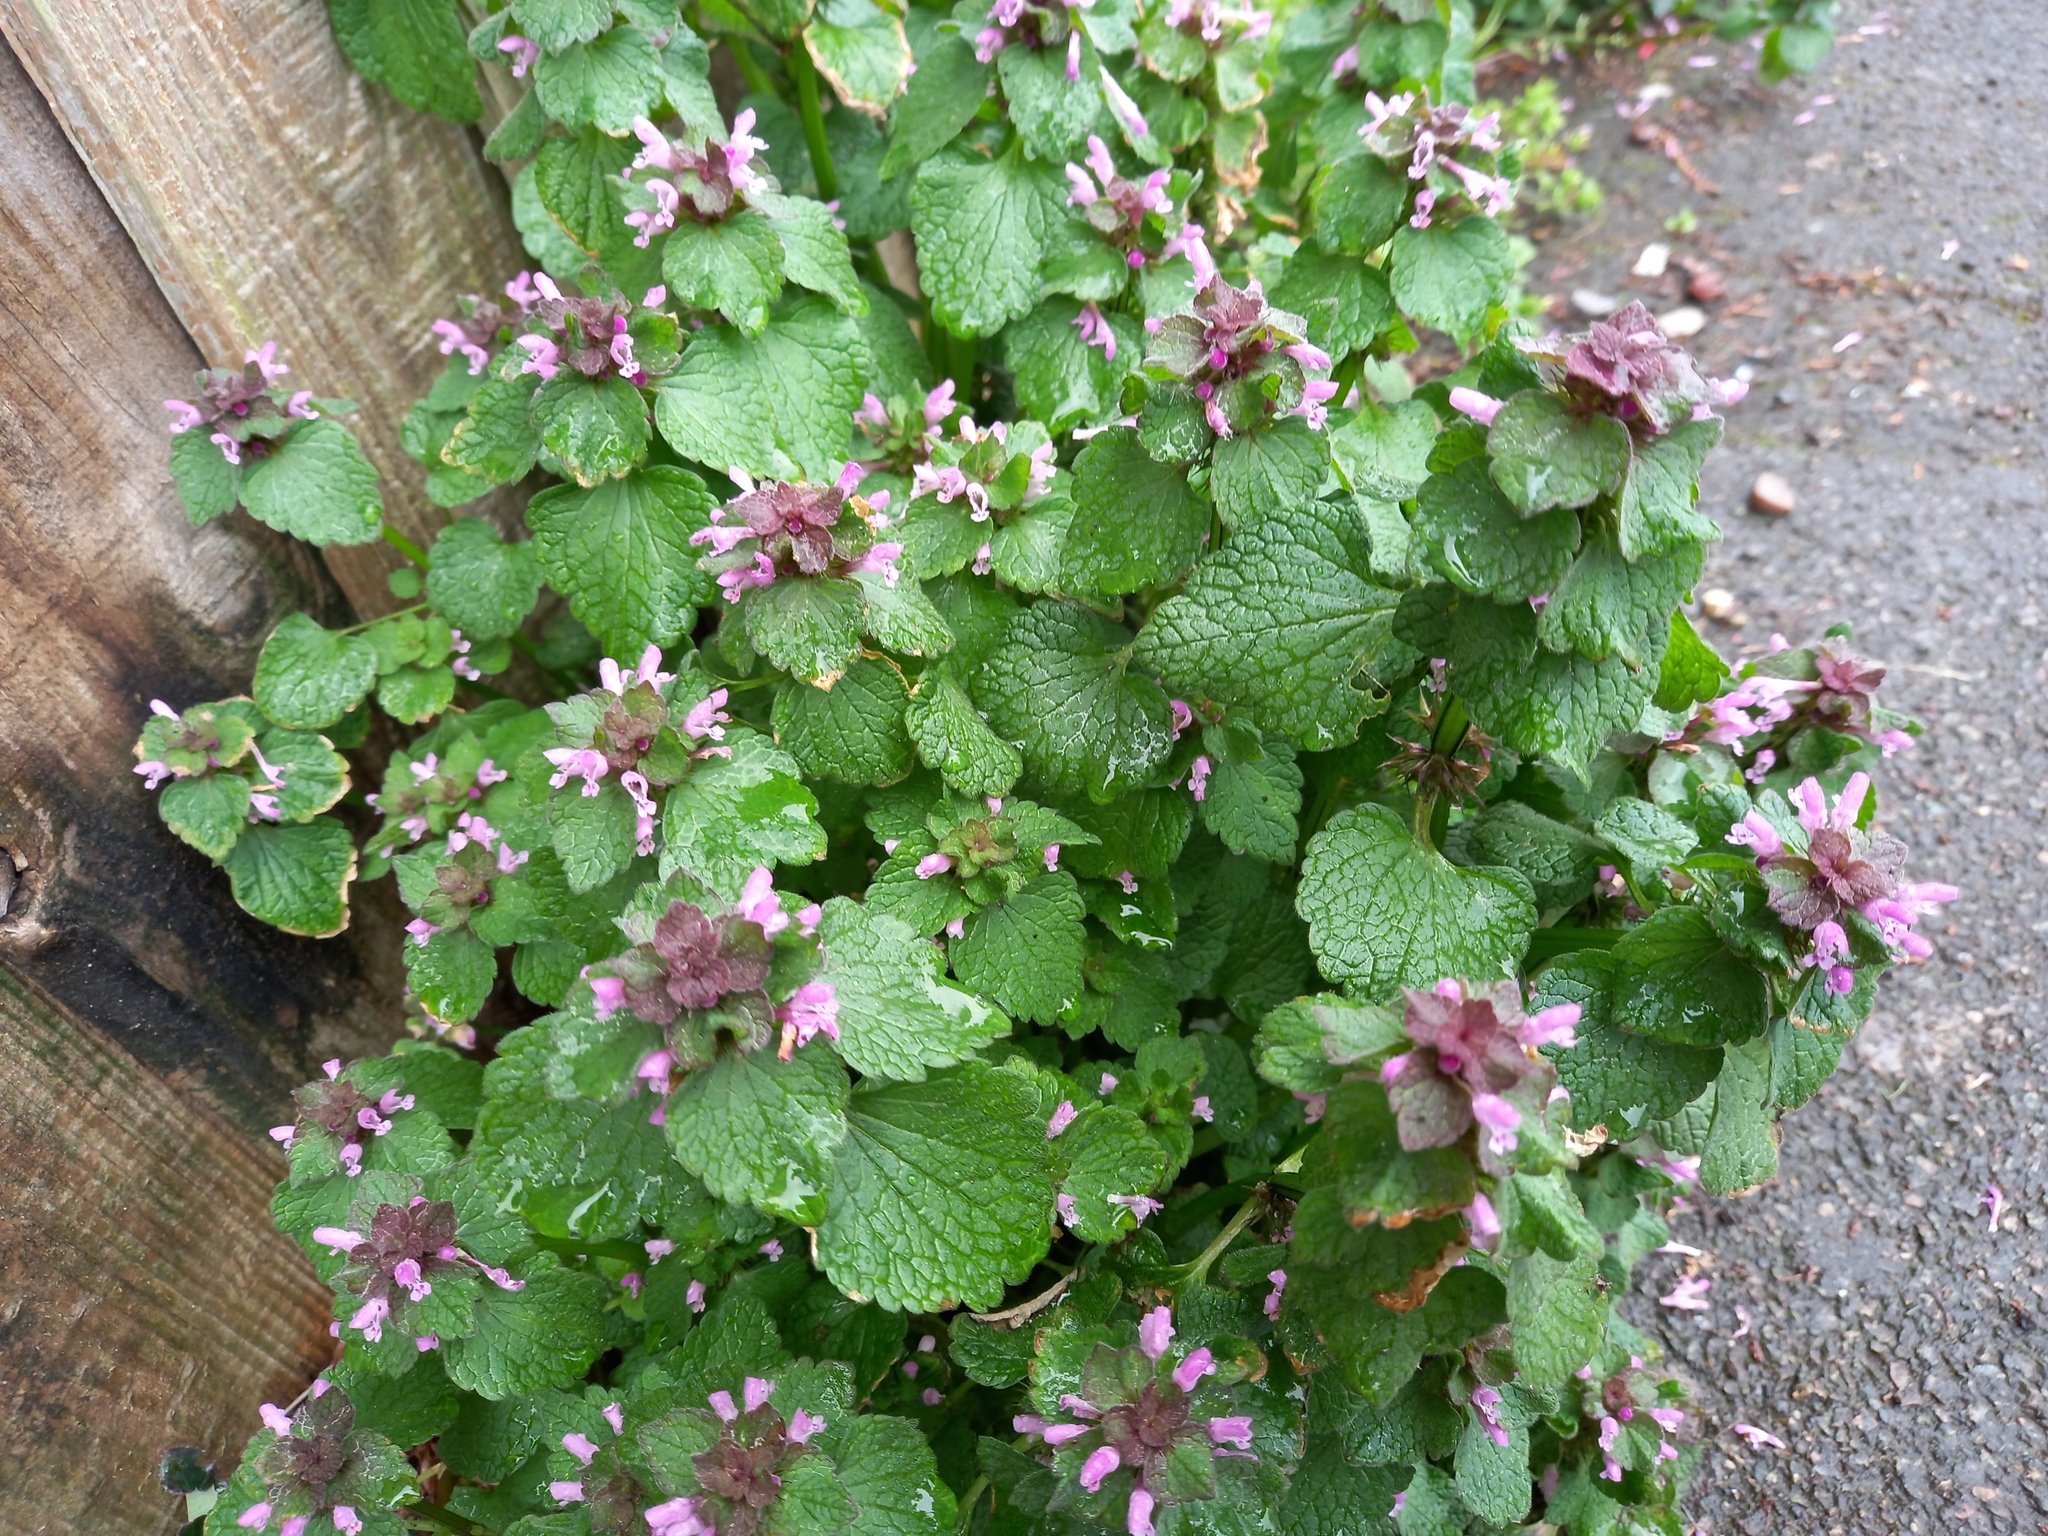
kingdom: Plantae
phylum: Tracheophyta
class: Magnoliopsida
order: Lamiales
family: Lamiaceae
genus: Lamium
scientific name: Lamium purpureum
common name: Red dead-nettle
